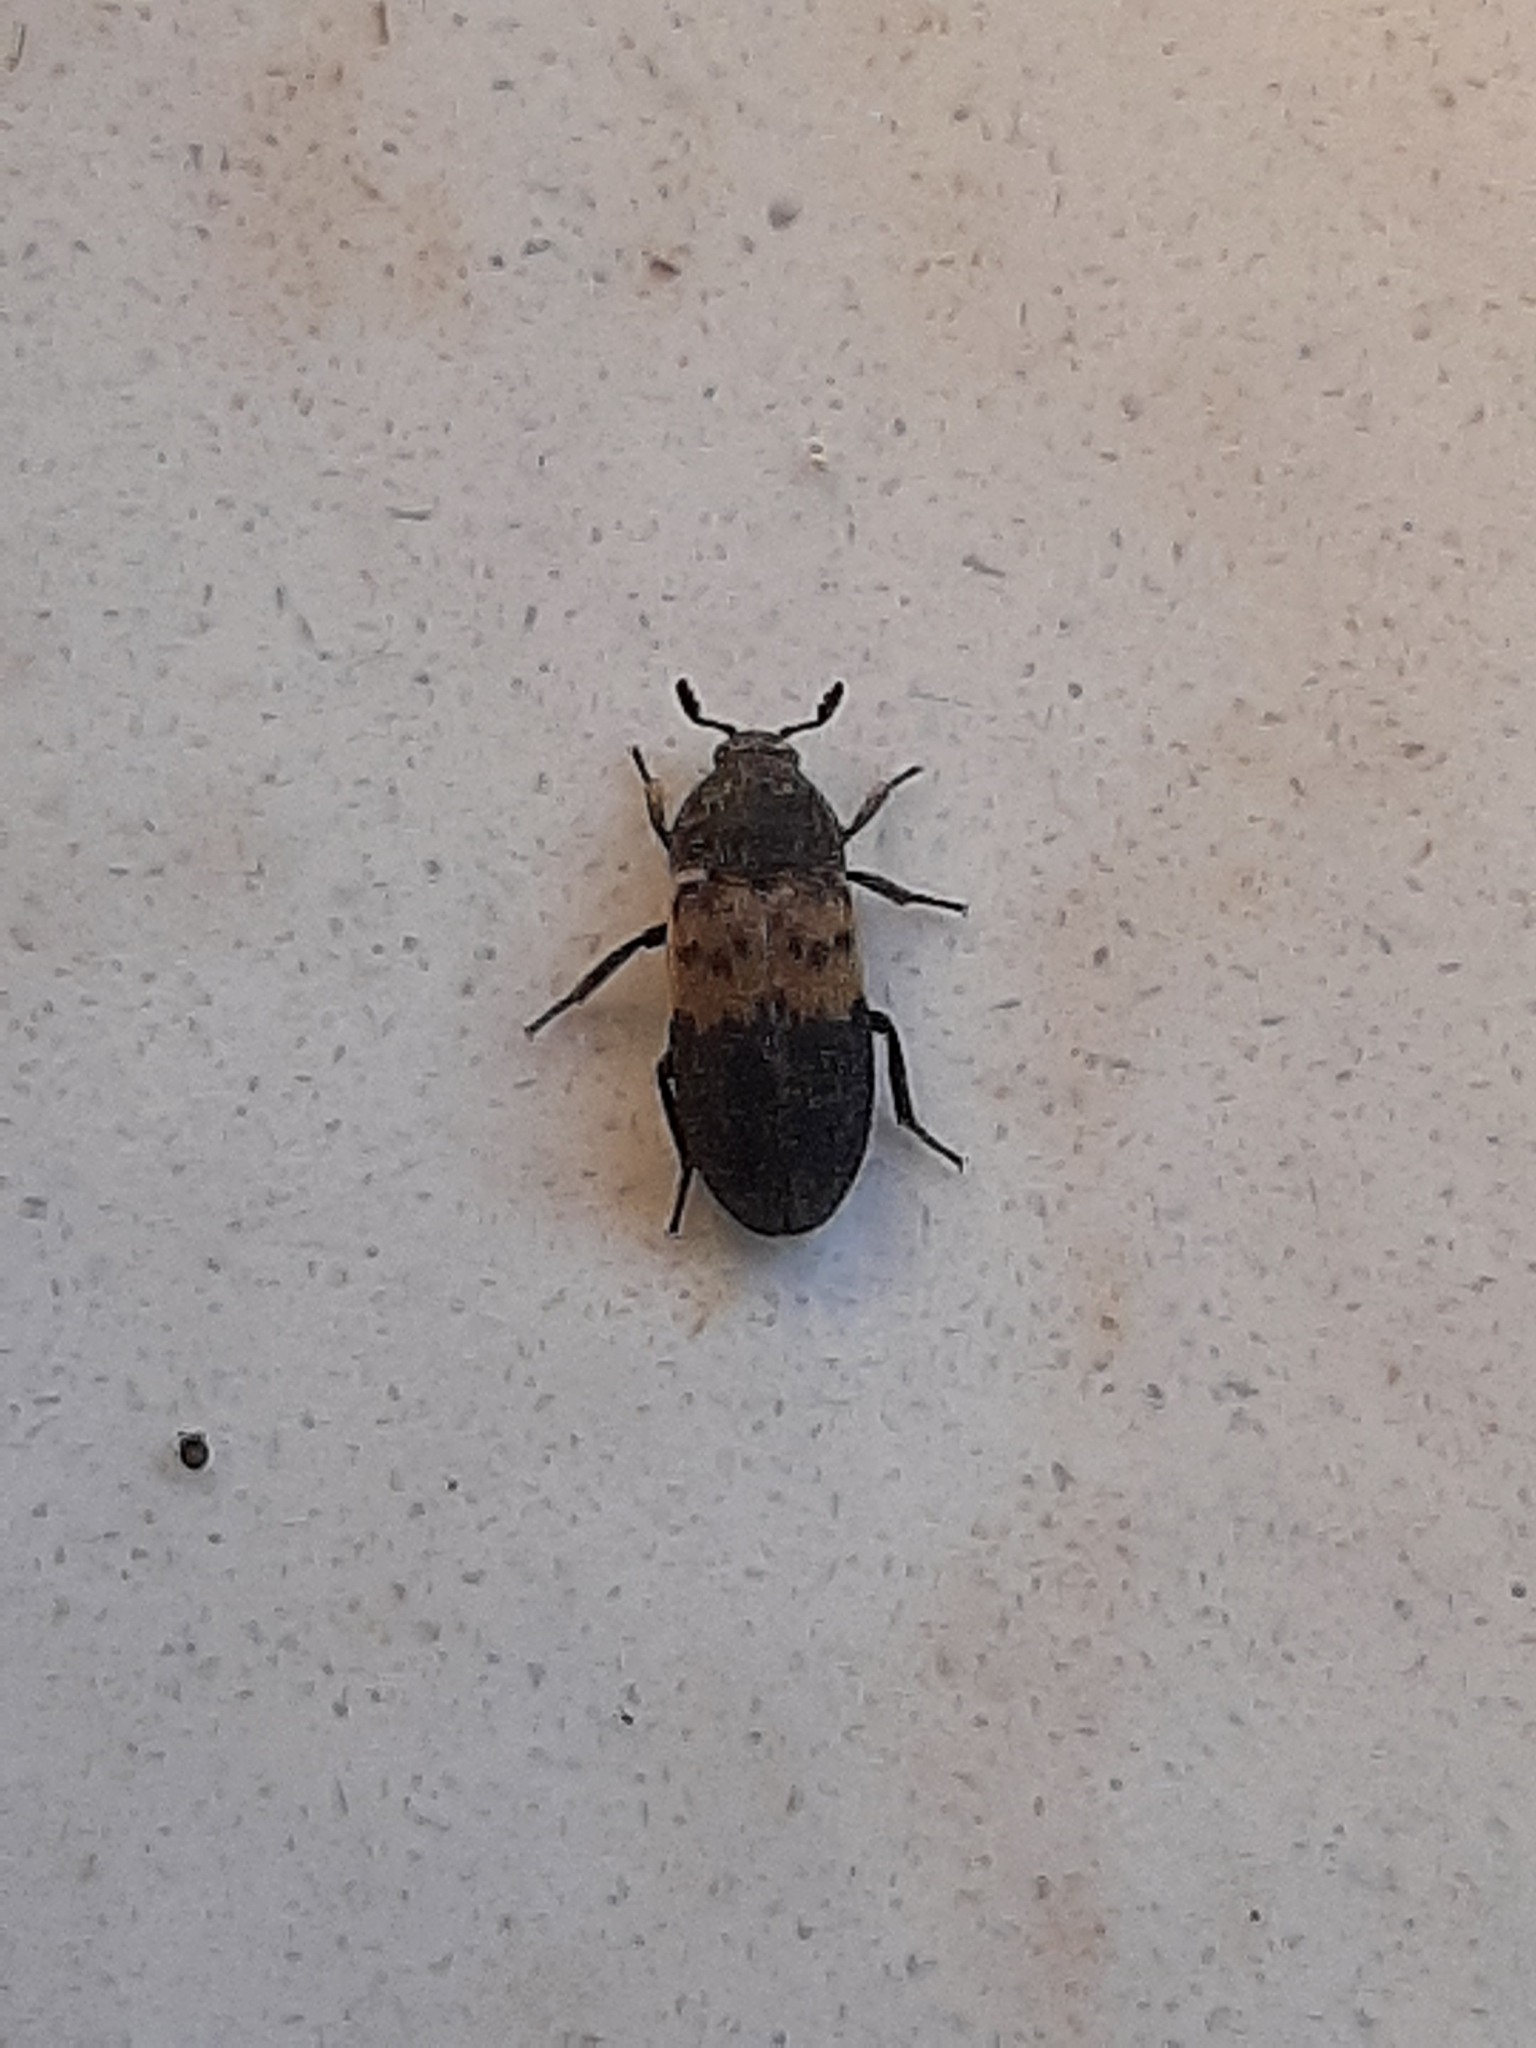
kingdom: Animalia
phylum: Arthropoda
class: Insecta
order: Coleoptera
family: Dermestidae
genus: Dermestes
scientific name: Dermestes lardarius
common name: Larder beetle
